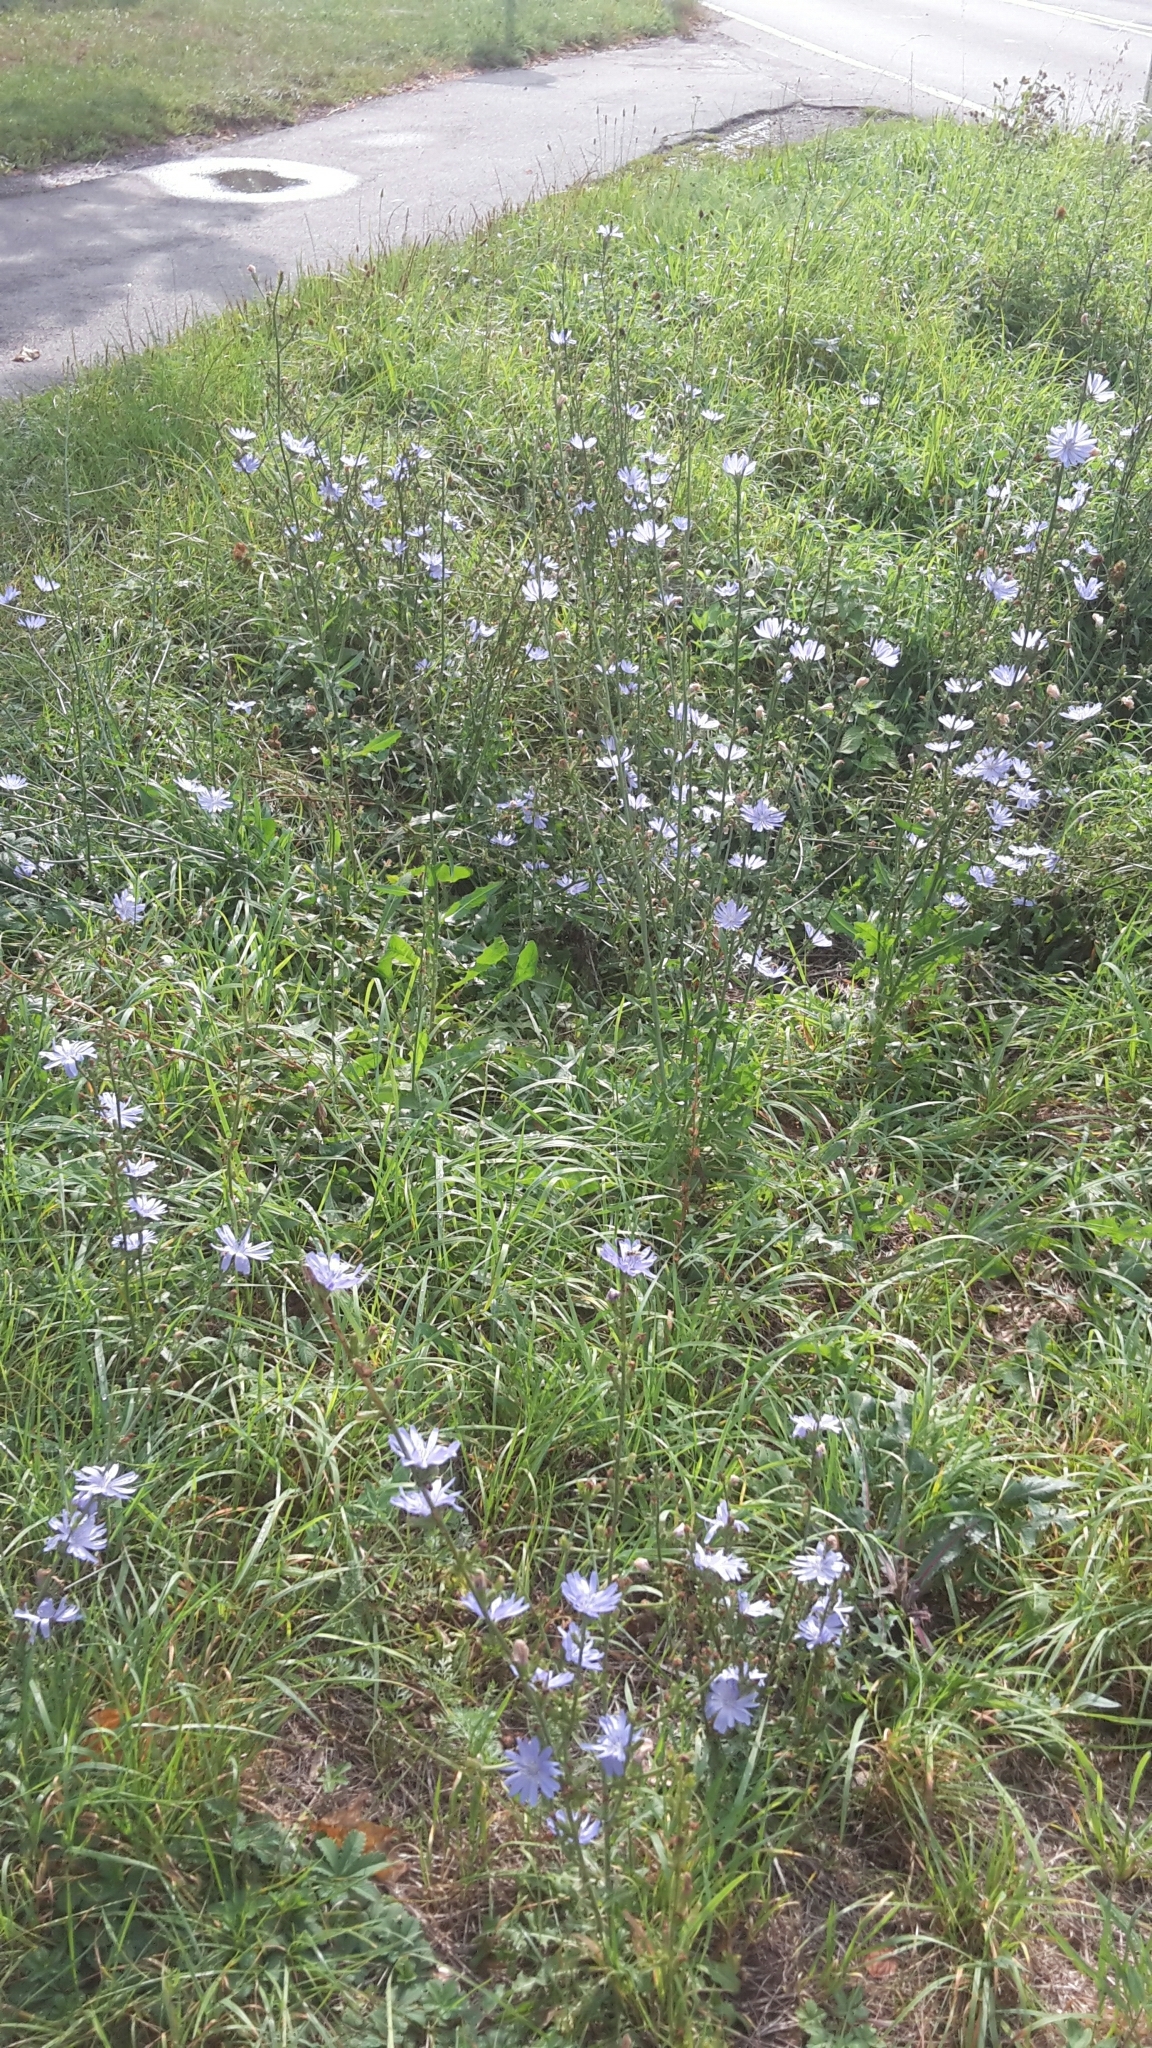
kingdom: Plantae
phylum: Tracheophyta
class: Magnoliopsida
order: Asterales
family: Asteraceae
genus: Cichorium
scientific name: Cichorium intybus
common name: Chicory
